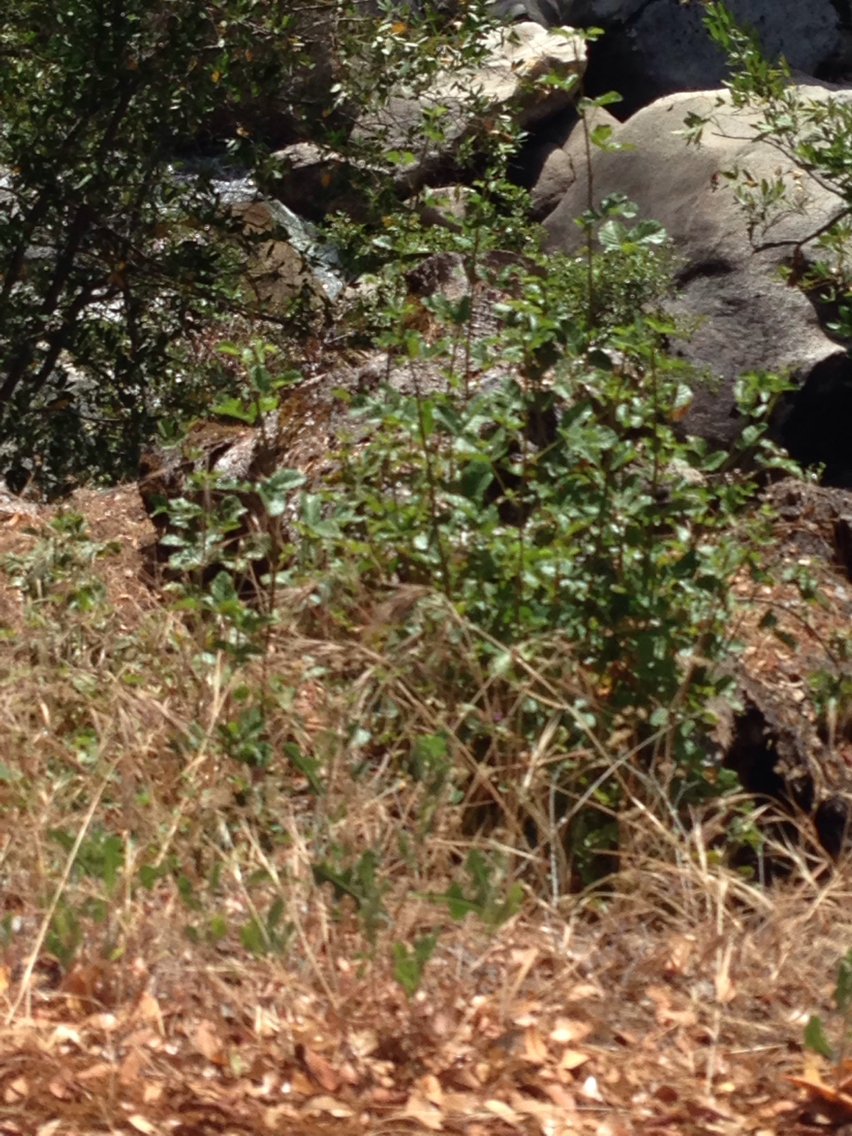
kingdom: Plantae
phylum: Tracheophyta
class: Magnoliopsida
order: Sapindales
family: Anacardiaceae
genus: Toxicodendron
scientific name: Toxicodendron diversilobum
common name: Pacific poison-oak
